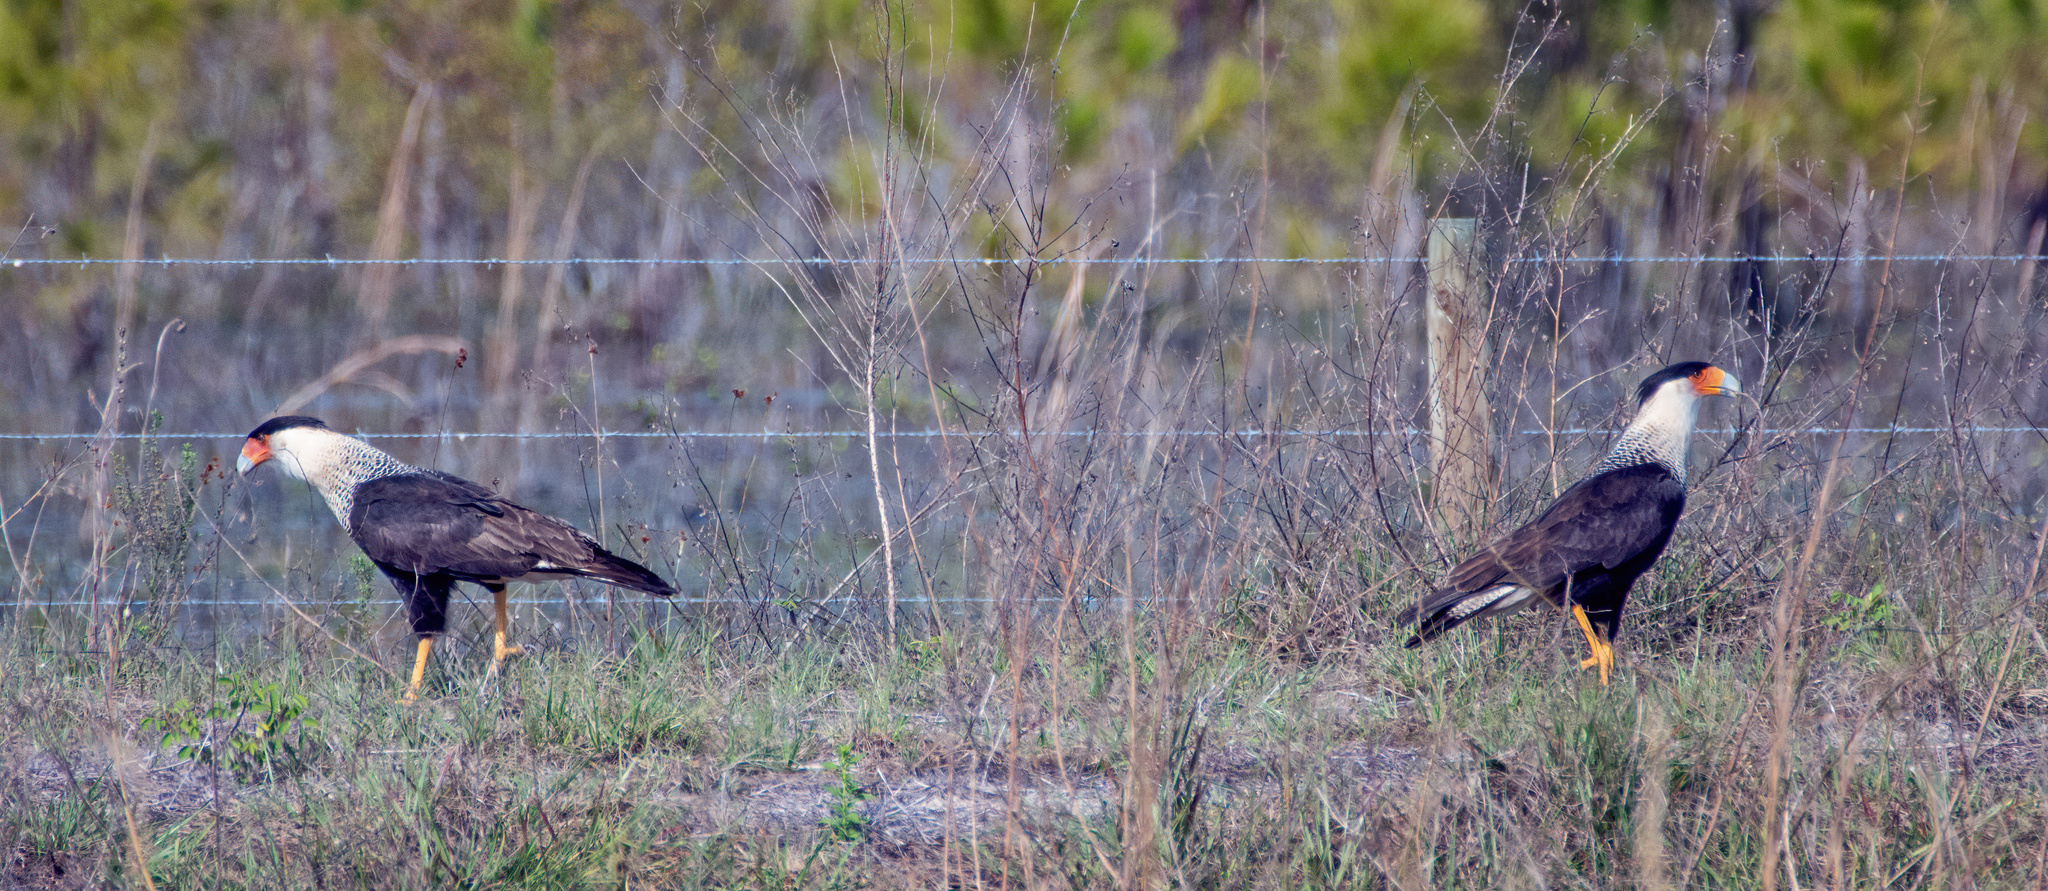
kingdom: Animalia
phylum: Chordata
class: Aves
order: Falconiformes
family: Falconidae
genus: Caracara
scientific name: Caracara plancus
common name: Southern caracara
